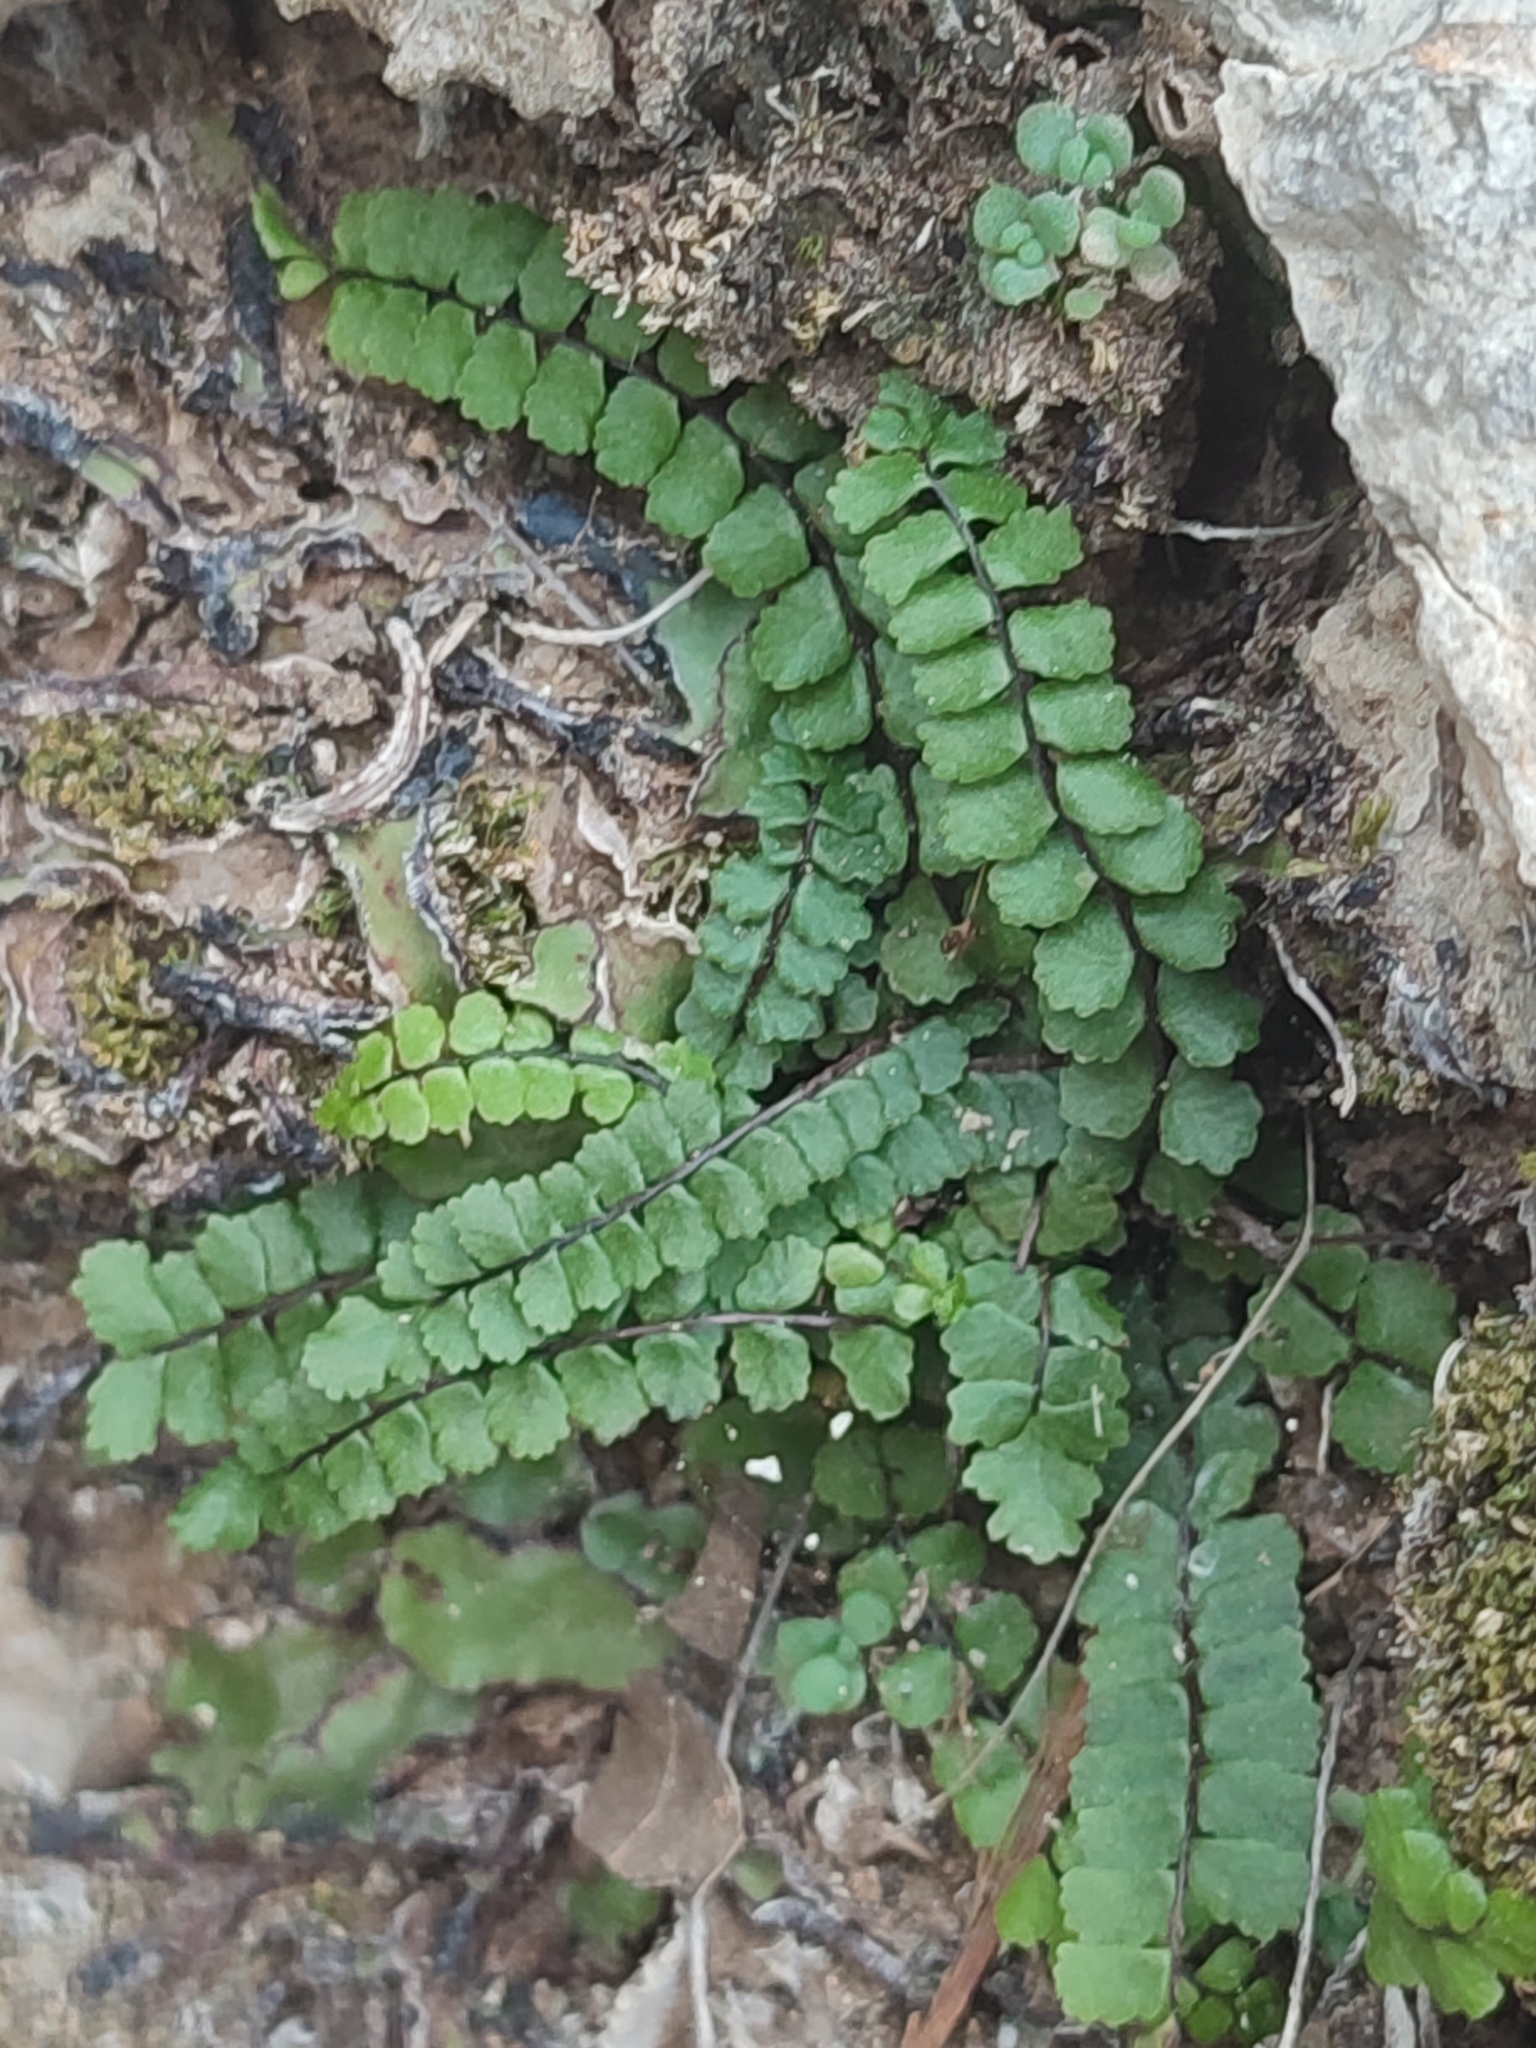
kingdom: Plantae
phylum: Tracheophyta
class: Polypodiopsida
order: Polypodiales
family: Aspleniaceae
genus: Asplenium
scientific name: Asplenium trichomanes
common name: Maidenhair spleenwort
